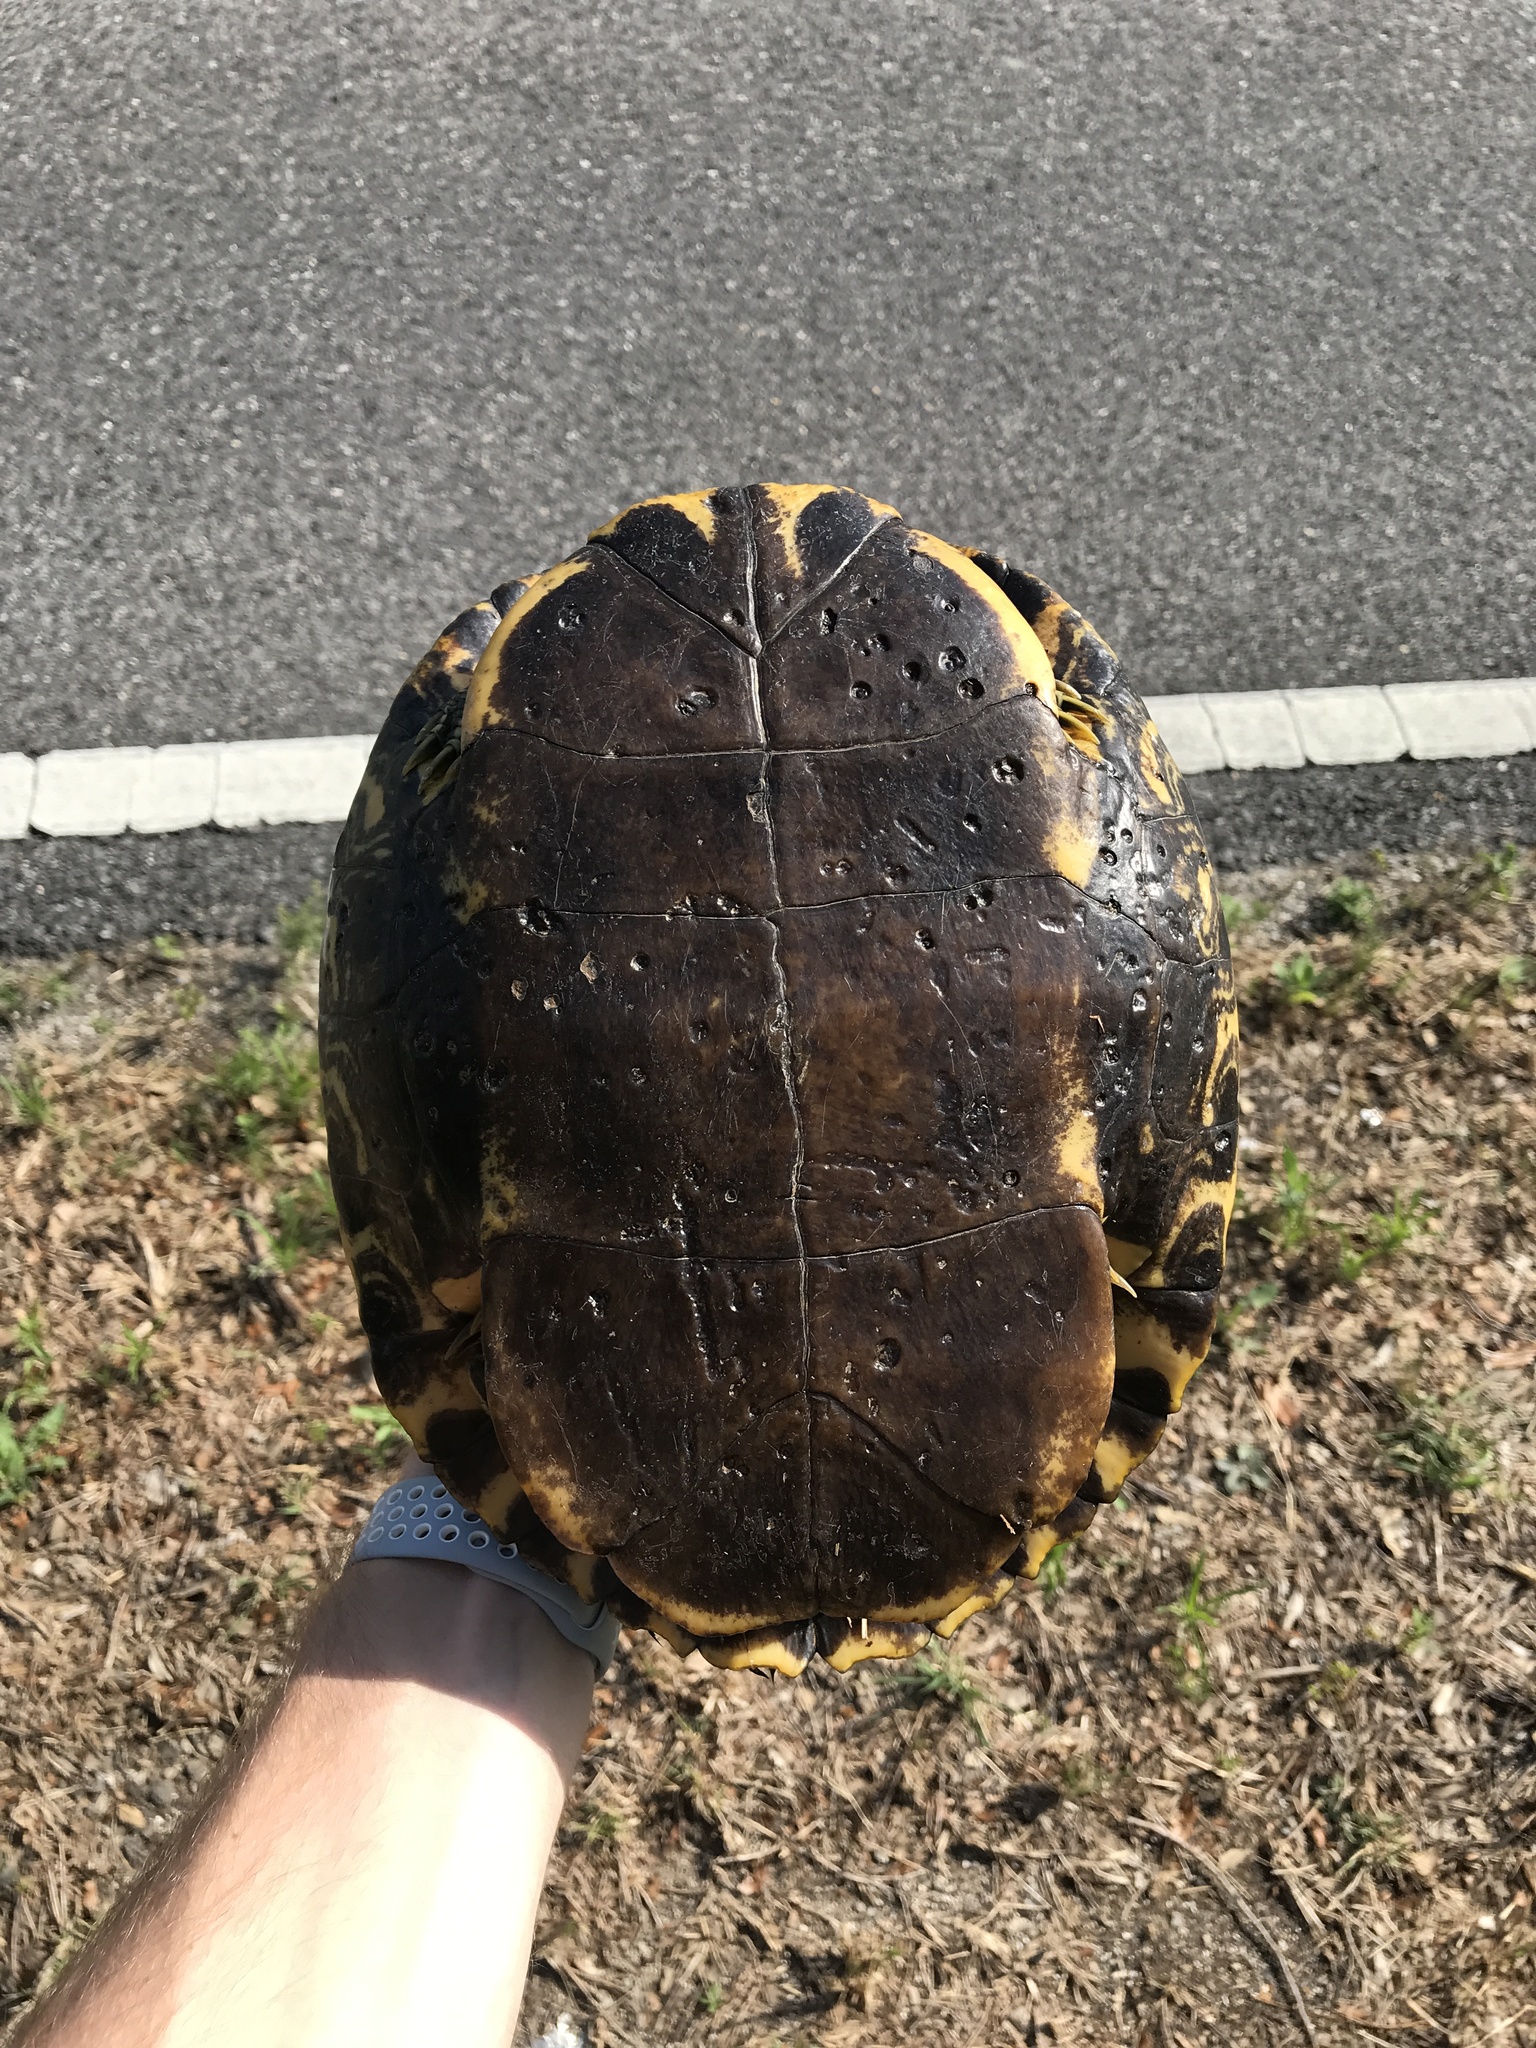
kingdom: Animalia
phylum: Chordata
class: Testudines
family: Emydidae
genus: Trachemys
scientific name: Trachemys scripta
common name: Slider
